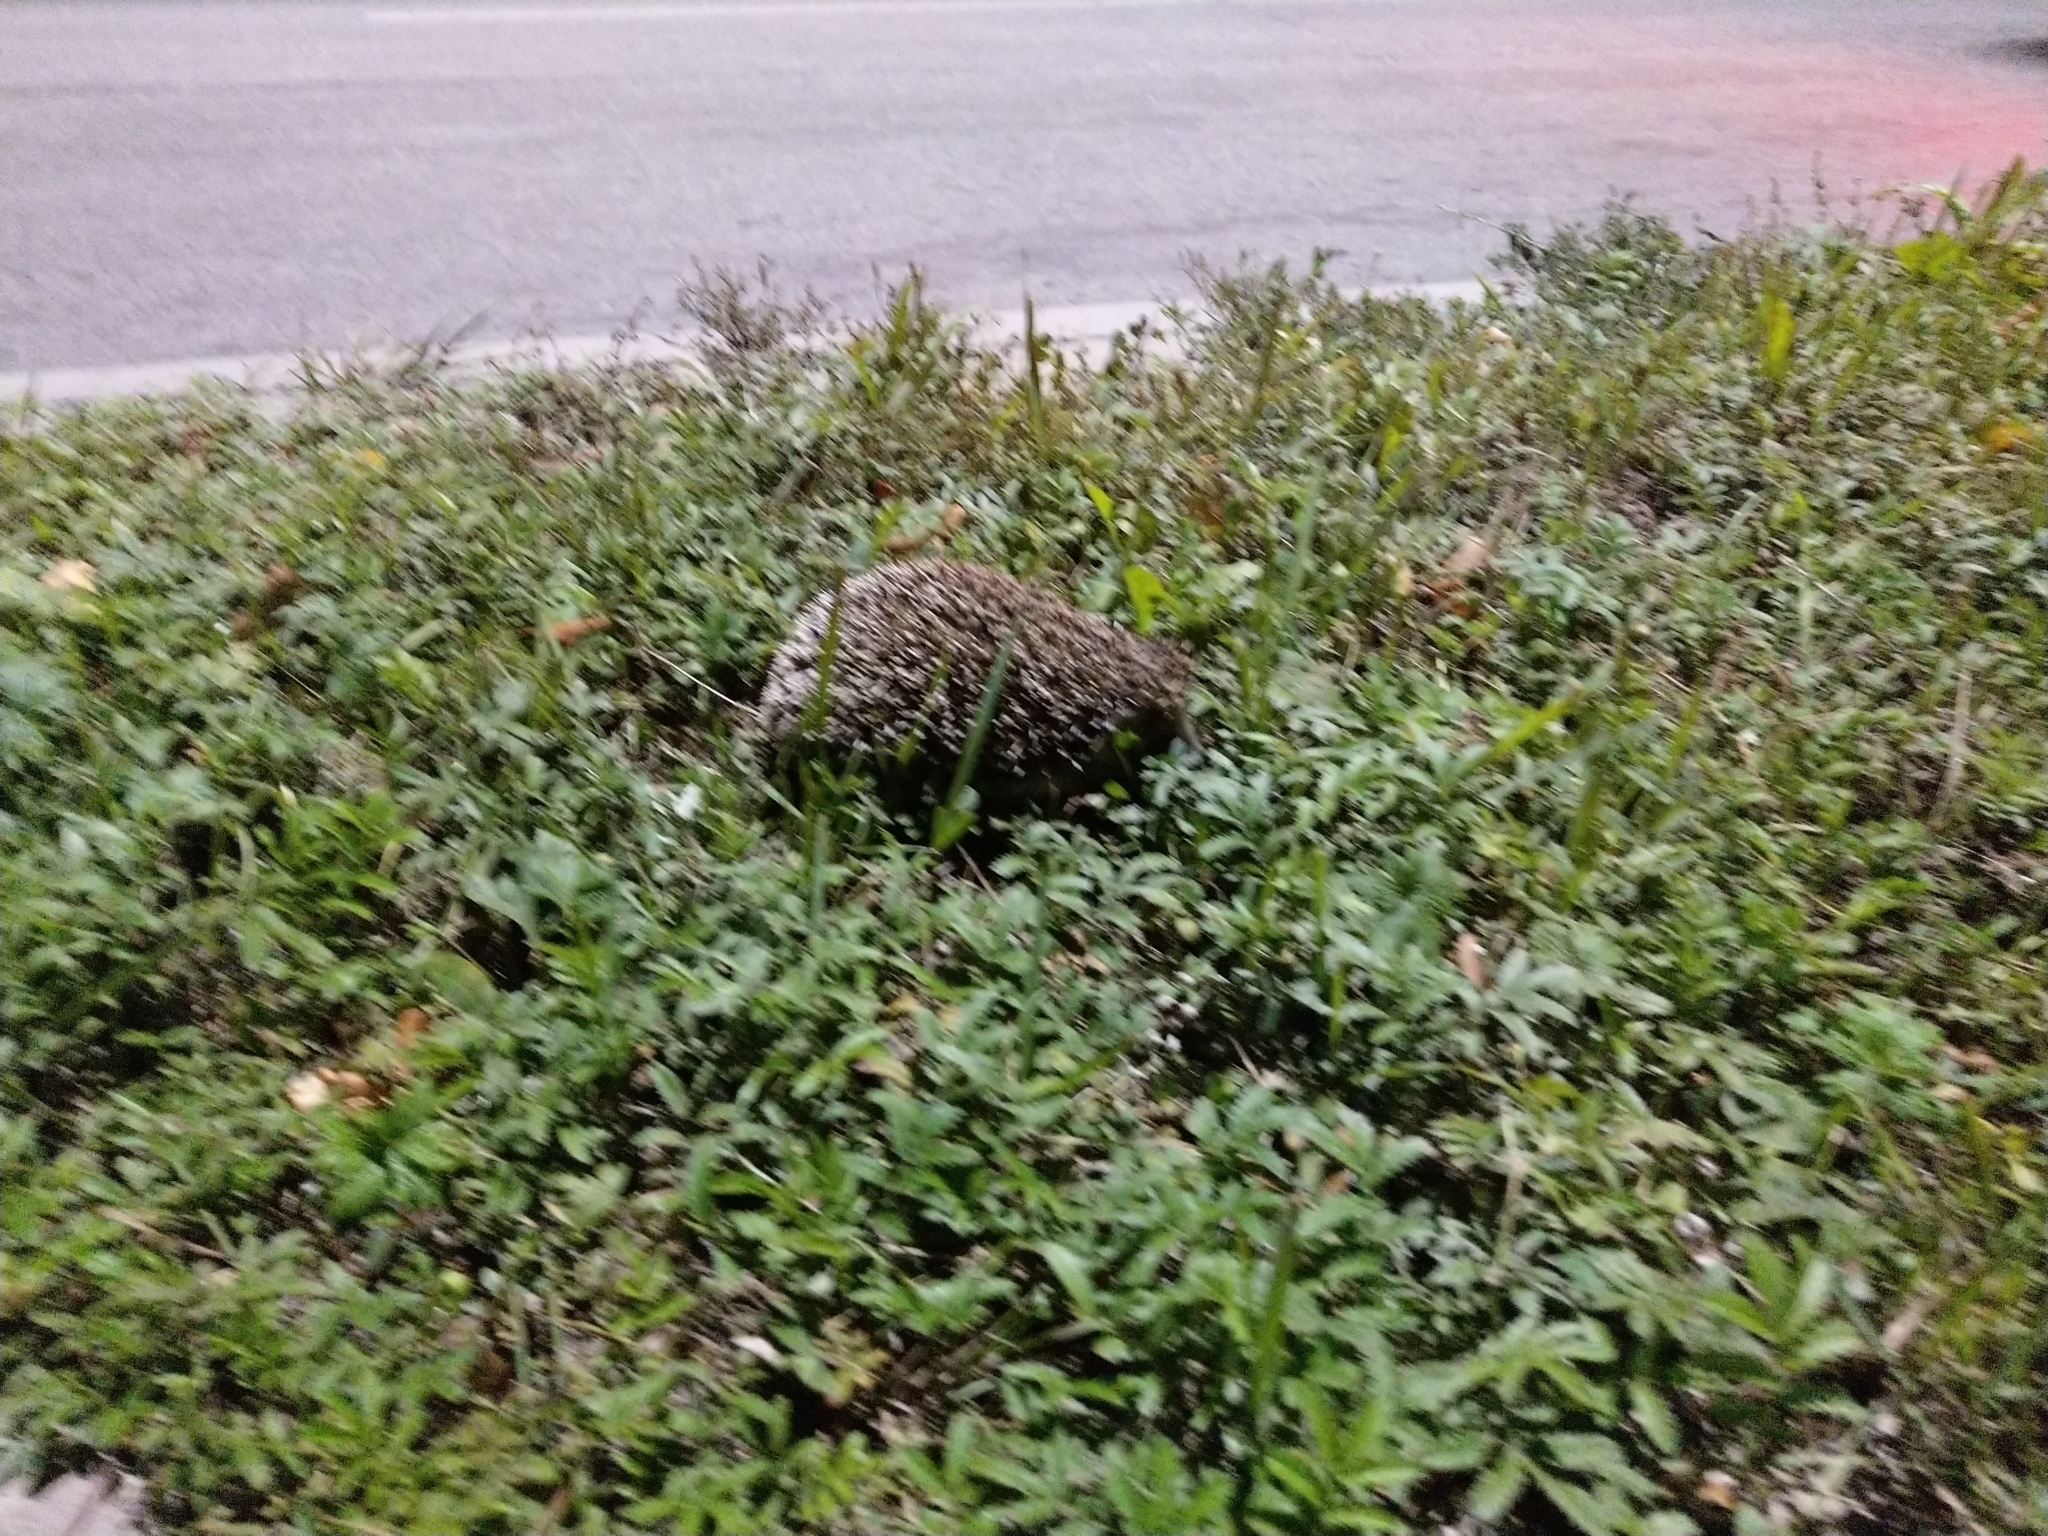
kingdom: Animalia
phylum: Chordata
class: Mammalia
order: Erinaceomorpha
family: Erinaceidae
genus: Erinaceus
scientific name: Erinaceus roumanicus
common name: Northern white-breasted hedgehog
